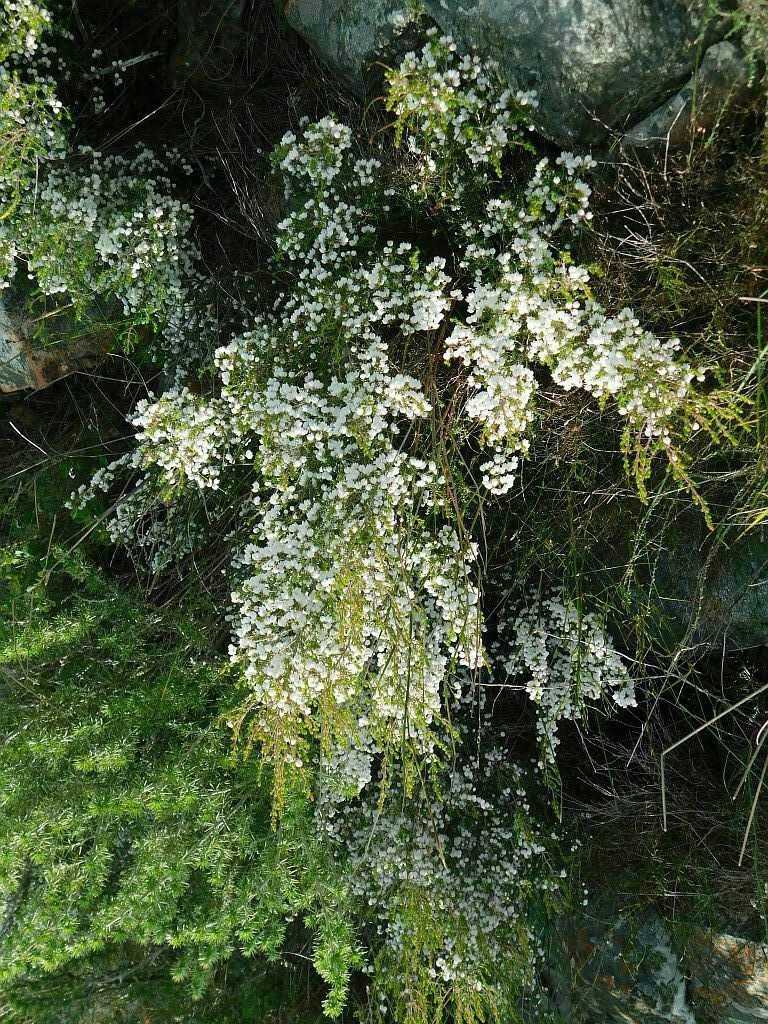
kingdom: Plantae
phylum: Tracheophyta
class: Magnoliopsida
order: Ericales
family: Ericaceae
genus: Erica
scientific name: Erica peziza
